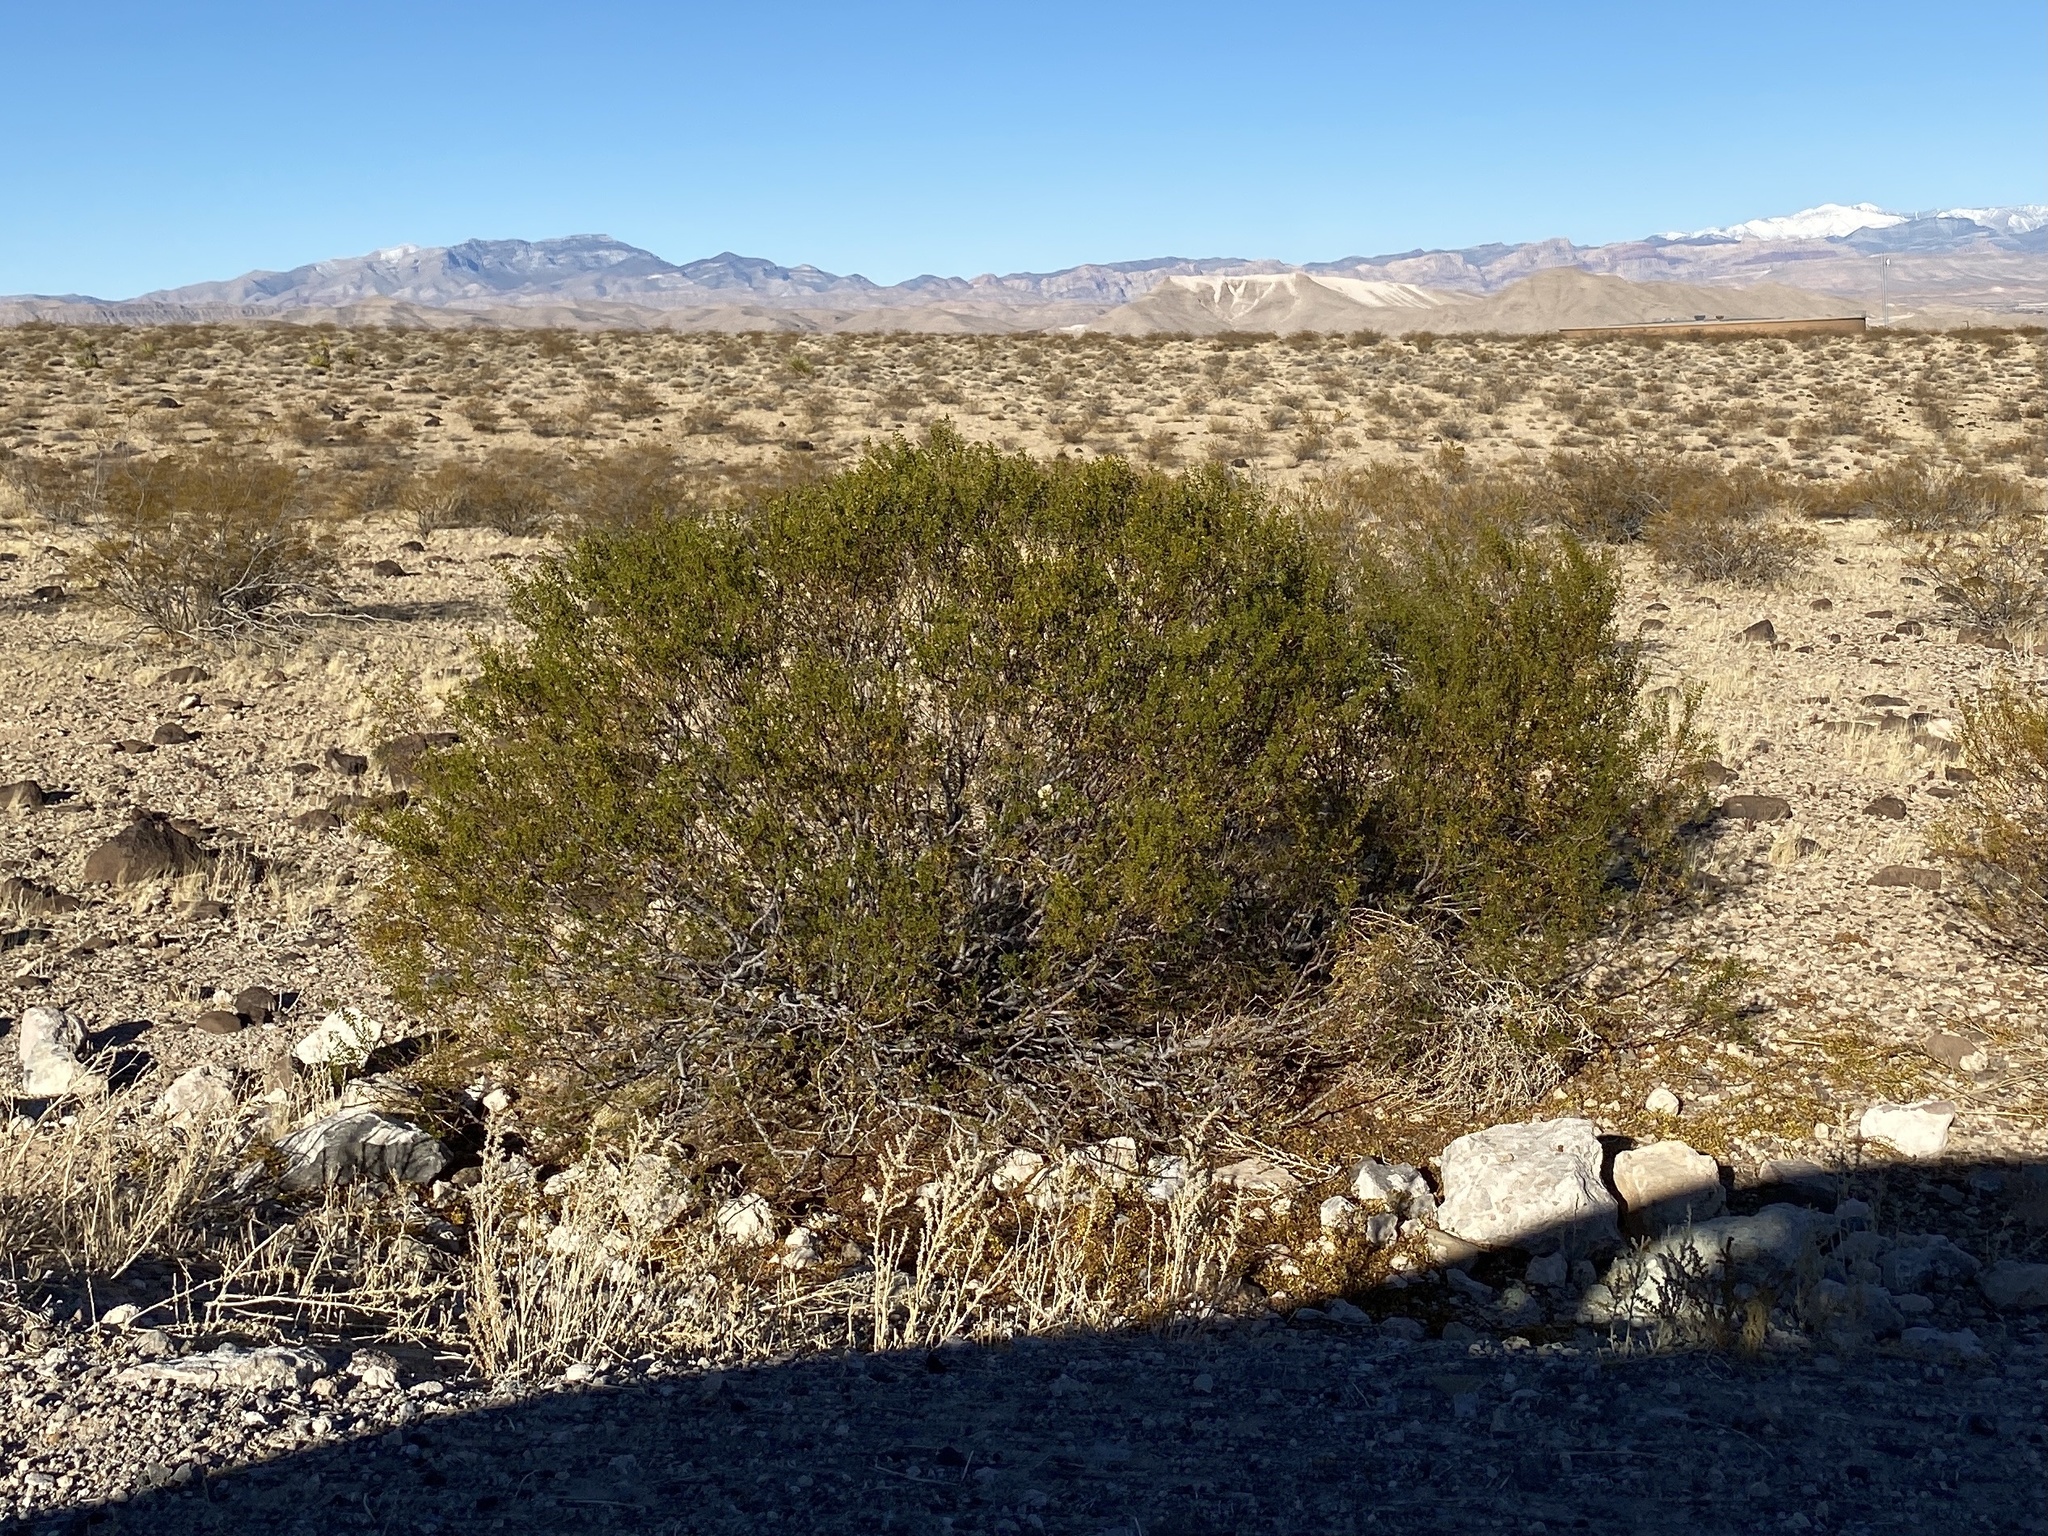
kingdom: Plantae
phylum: Tracheophyta
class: Magnoliopsida
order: Zygophyllales
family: Zygophyllaceae
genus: Larrea
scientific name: Larrea tridentata
